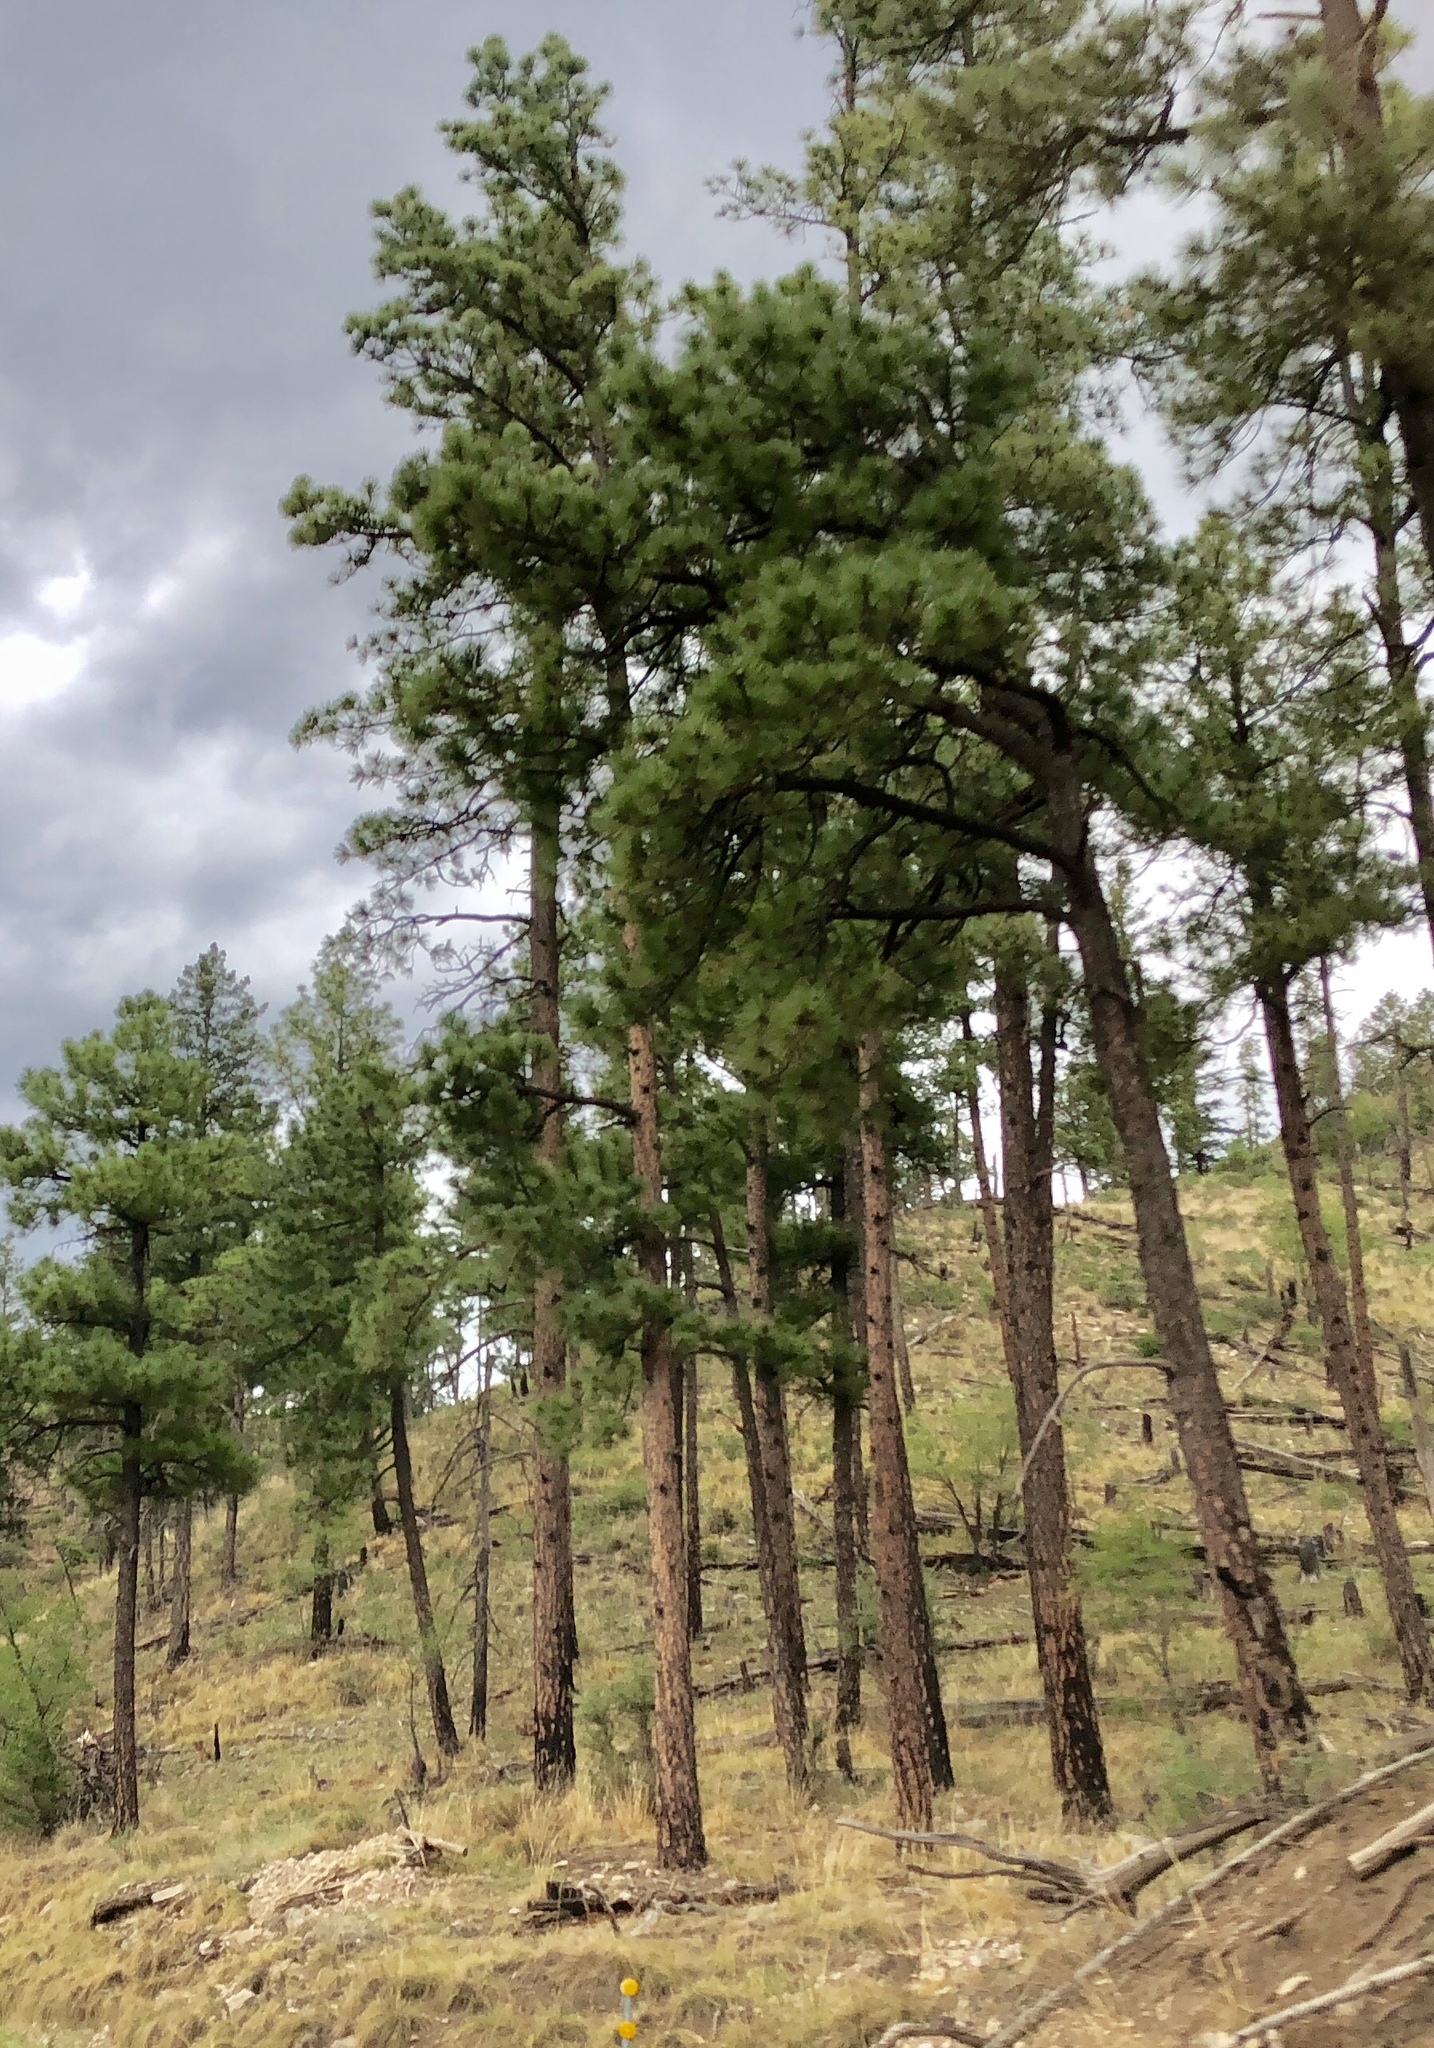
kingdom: Plantae
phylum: Tracheophyta
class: Pinopsida
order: Pinales
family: Pinaceae
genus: Pinus
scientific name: Pinus ponderosa
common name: Western yellow-pine
